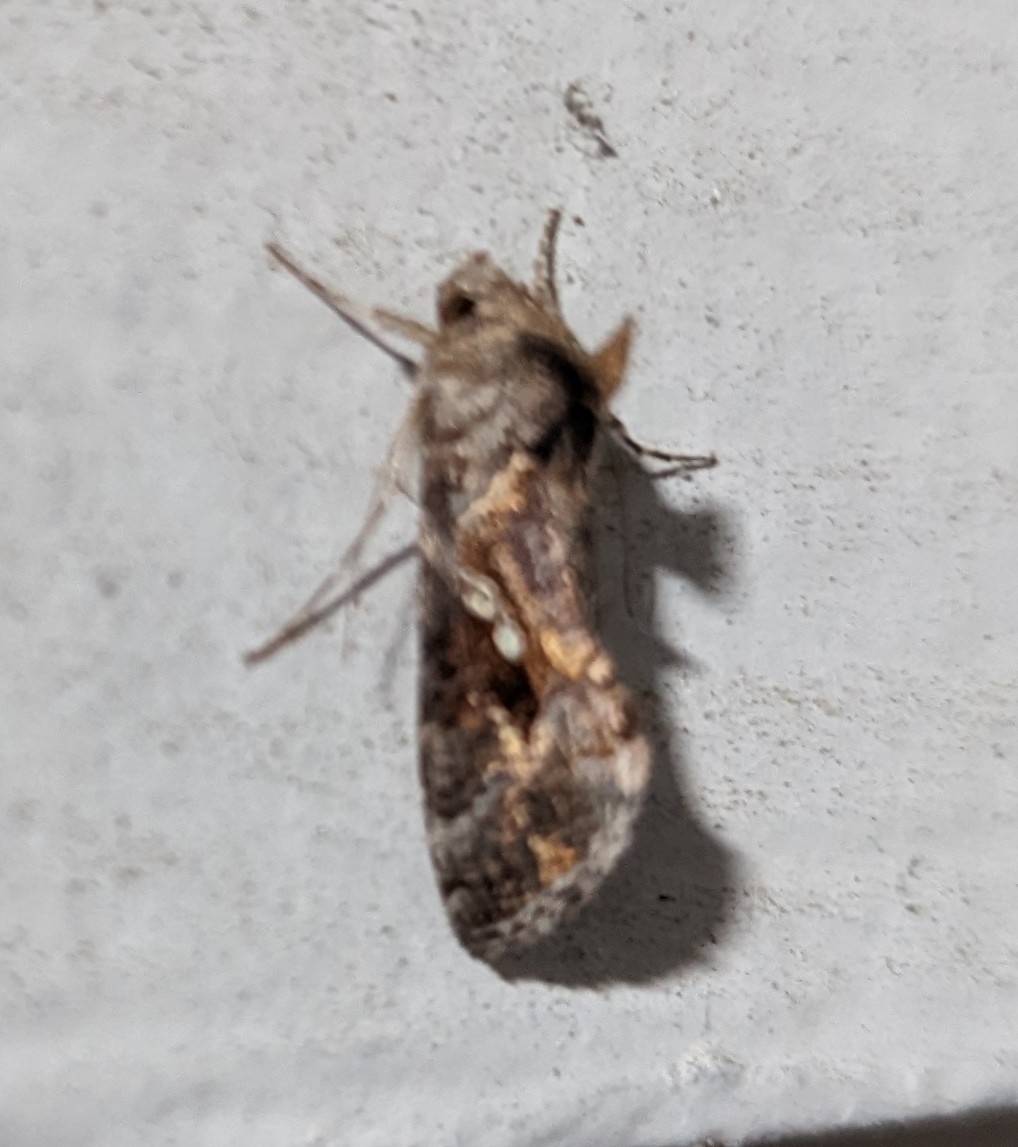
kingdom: Animalia
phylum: Arthropoda
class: Insecta
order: Lepidoptera
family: Noctuidae
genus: Chrysodeixis
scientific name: Chrysodeixis includens
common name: Cutworm moth
